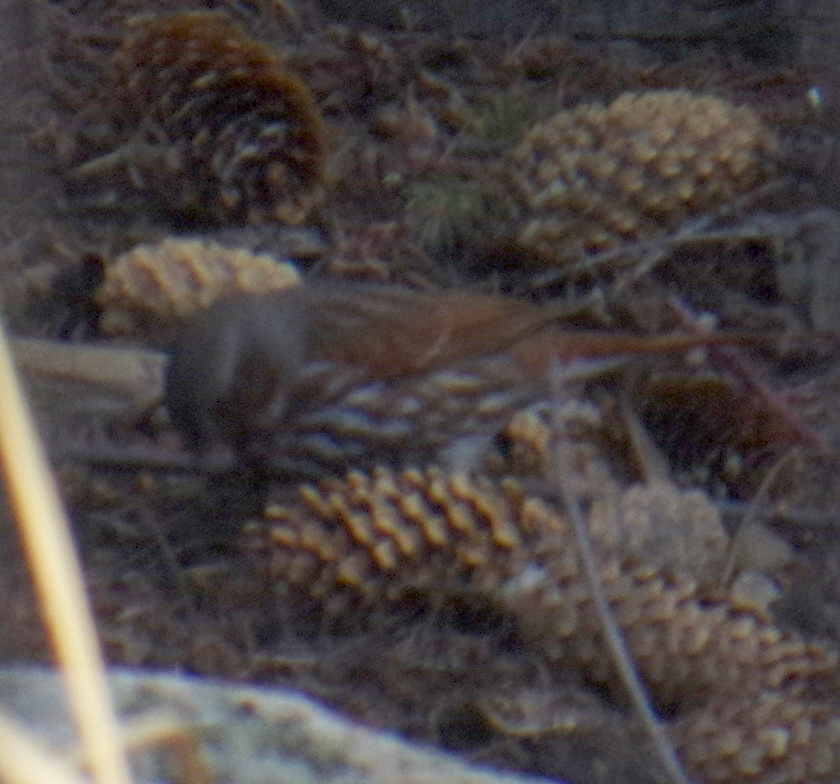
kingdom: Animalia
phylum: Chordata
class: Aves
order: Passeriformes
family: Passerellidae
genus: Passerella
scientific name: Passerella iliaca
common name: Fox sparrow
